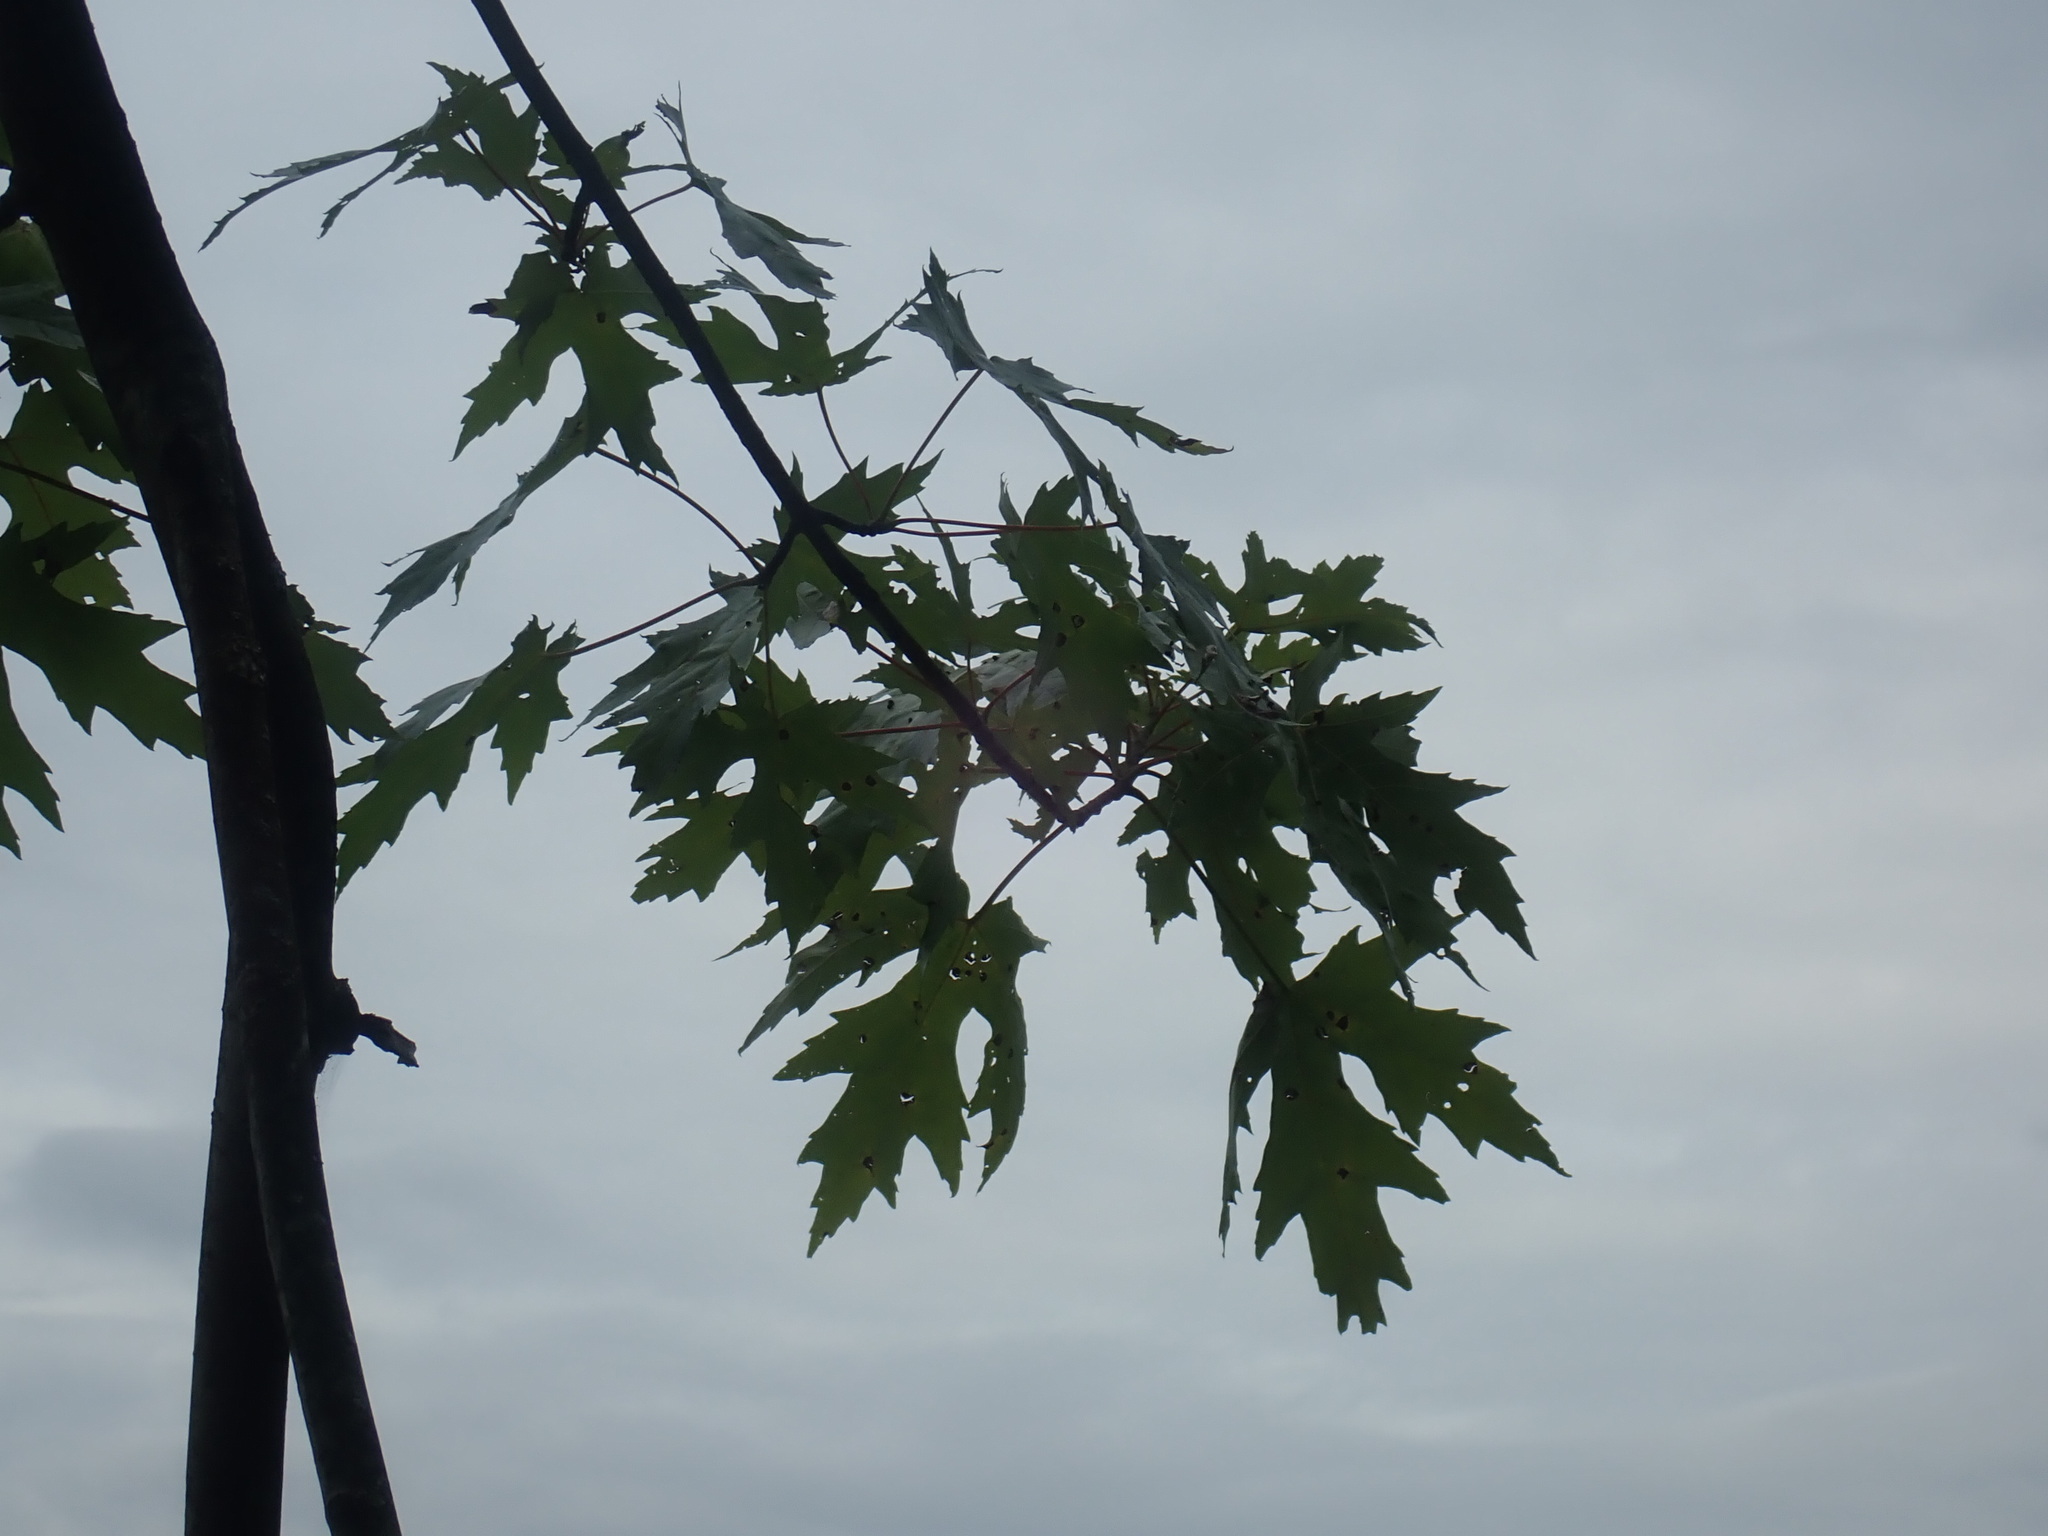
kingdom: Plantae
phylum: Tracheophyta
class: Magnoliopsida
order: Sapindales
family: Sapindaceae
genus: Acer
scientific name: Acer saccharinum
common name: Silver maple
